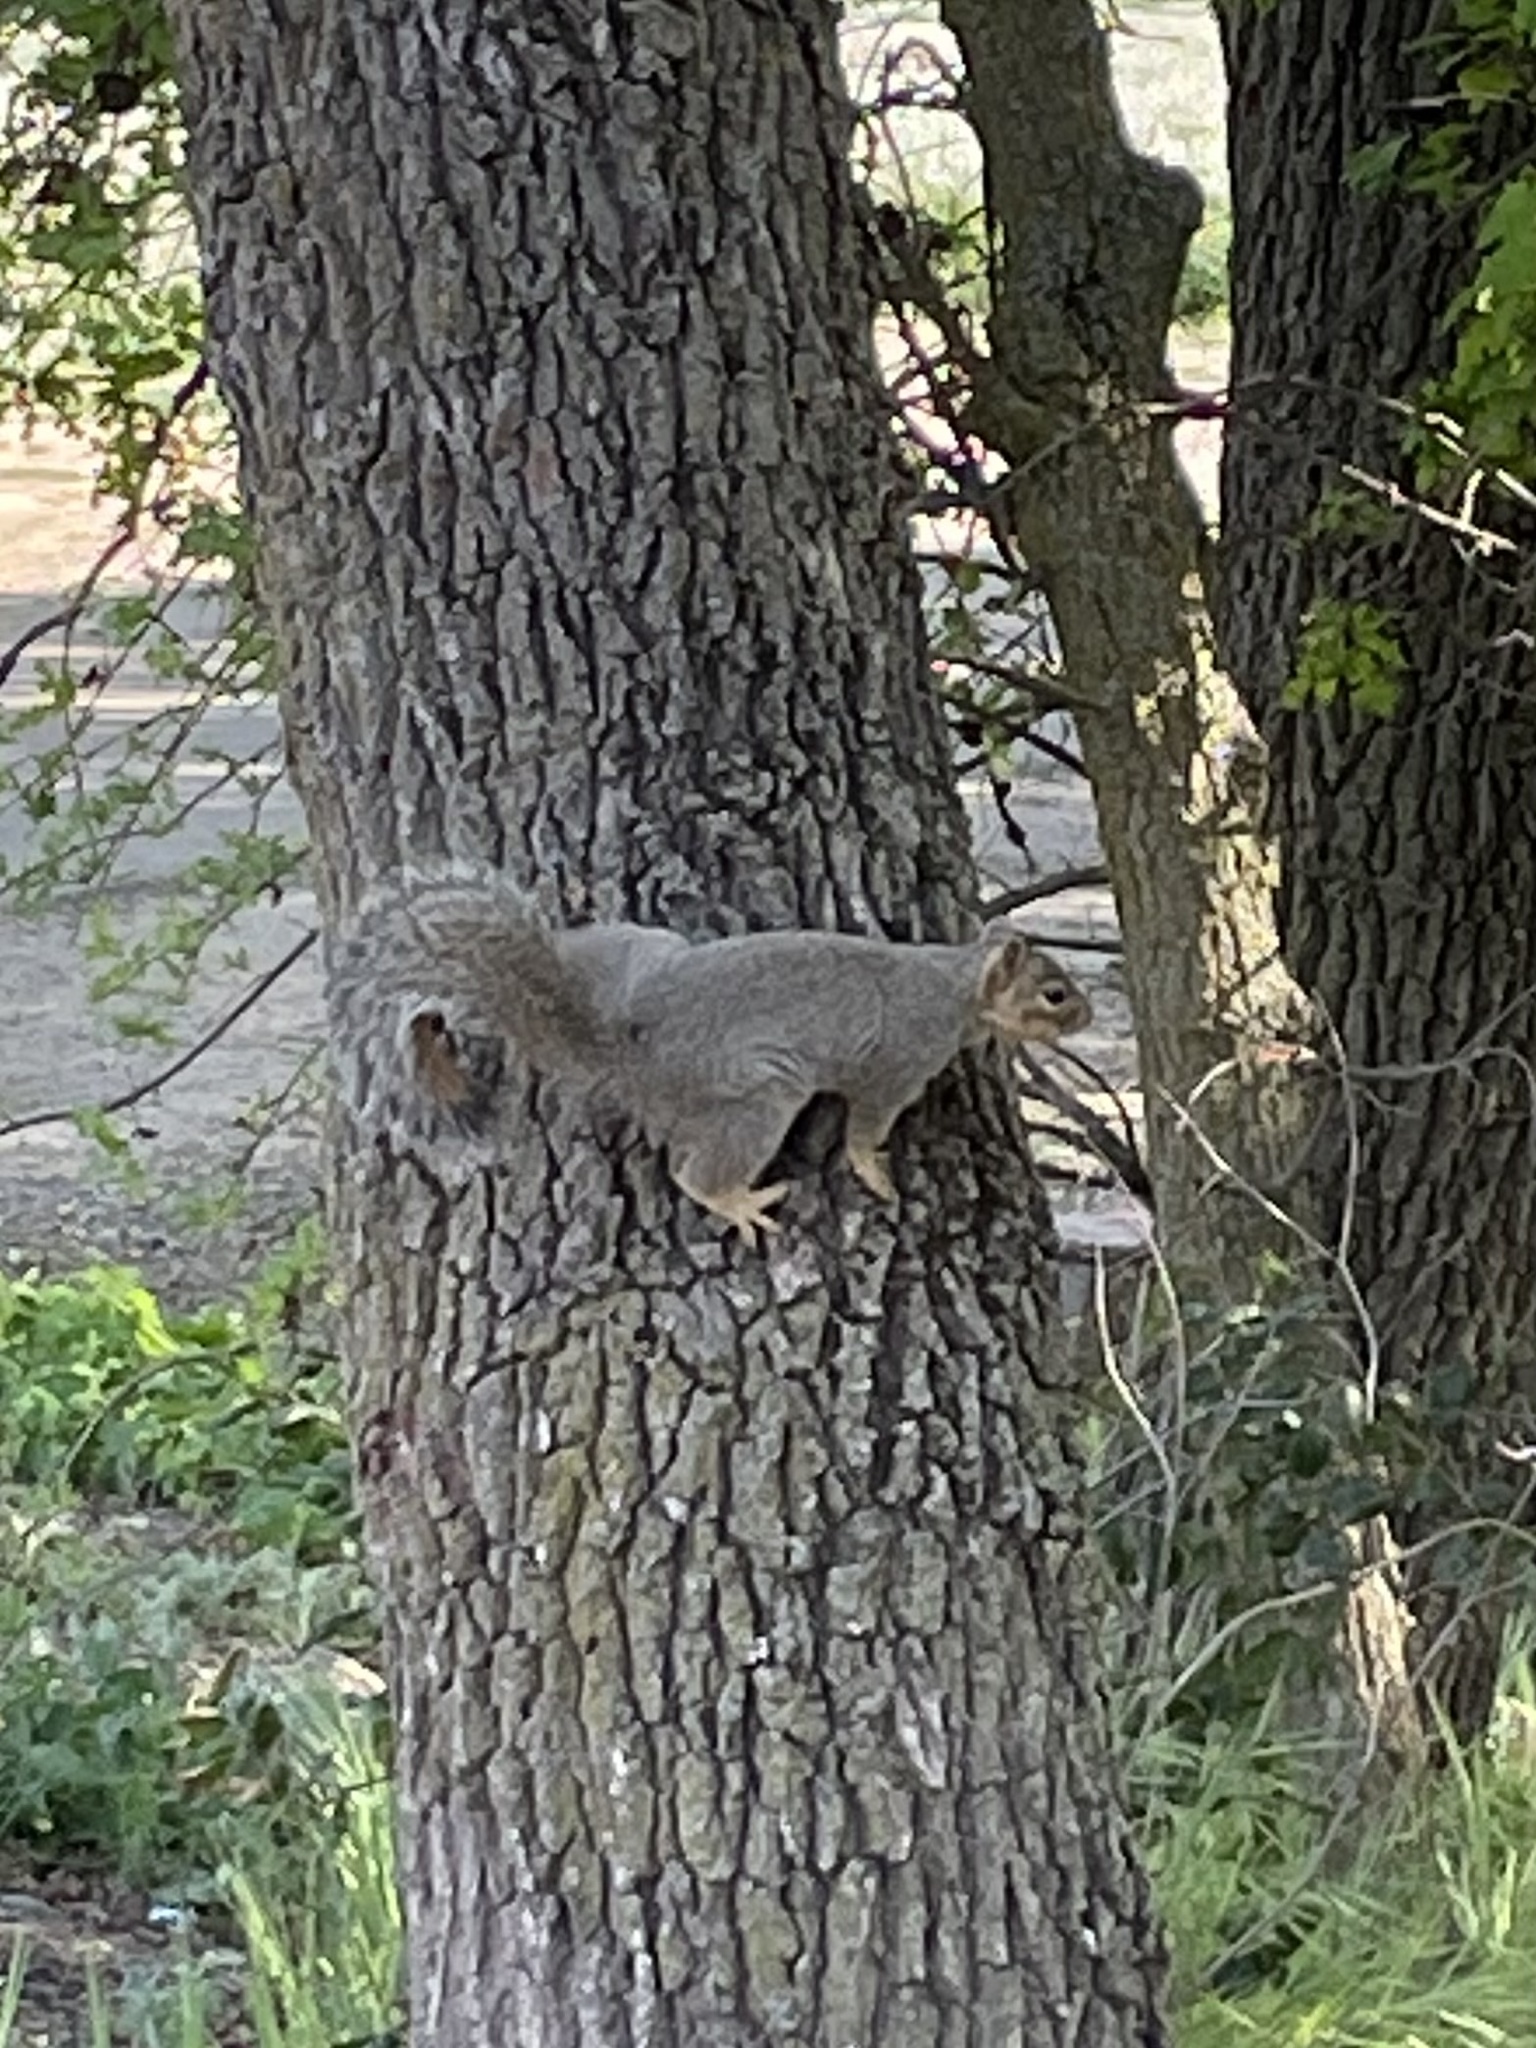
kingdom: Animalia
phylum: Chordata
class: Mammalia
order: Rodentia
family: Sciuridae
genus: Sciurus
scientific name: Sciurus niger
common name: Fox squirrel
